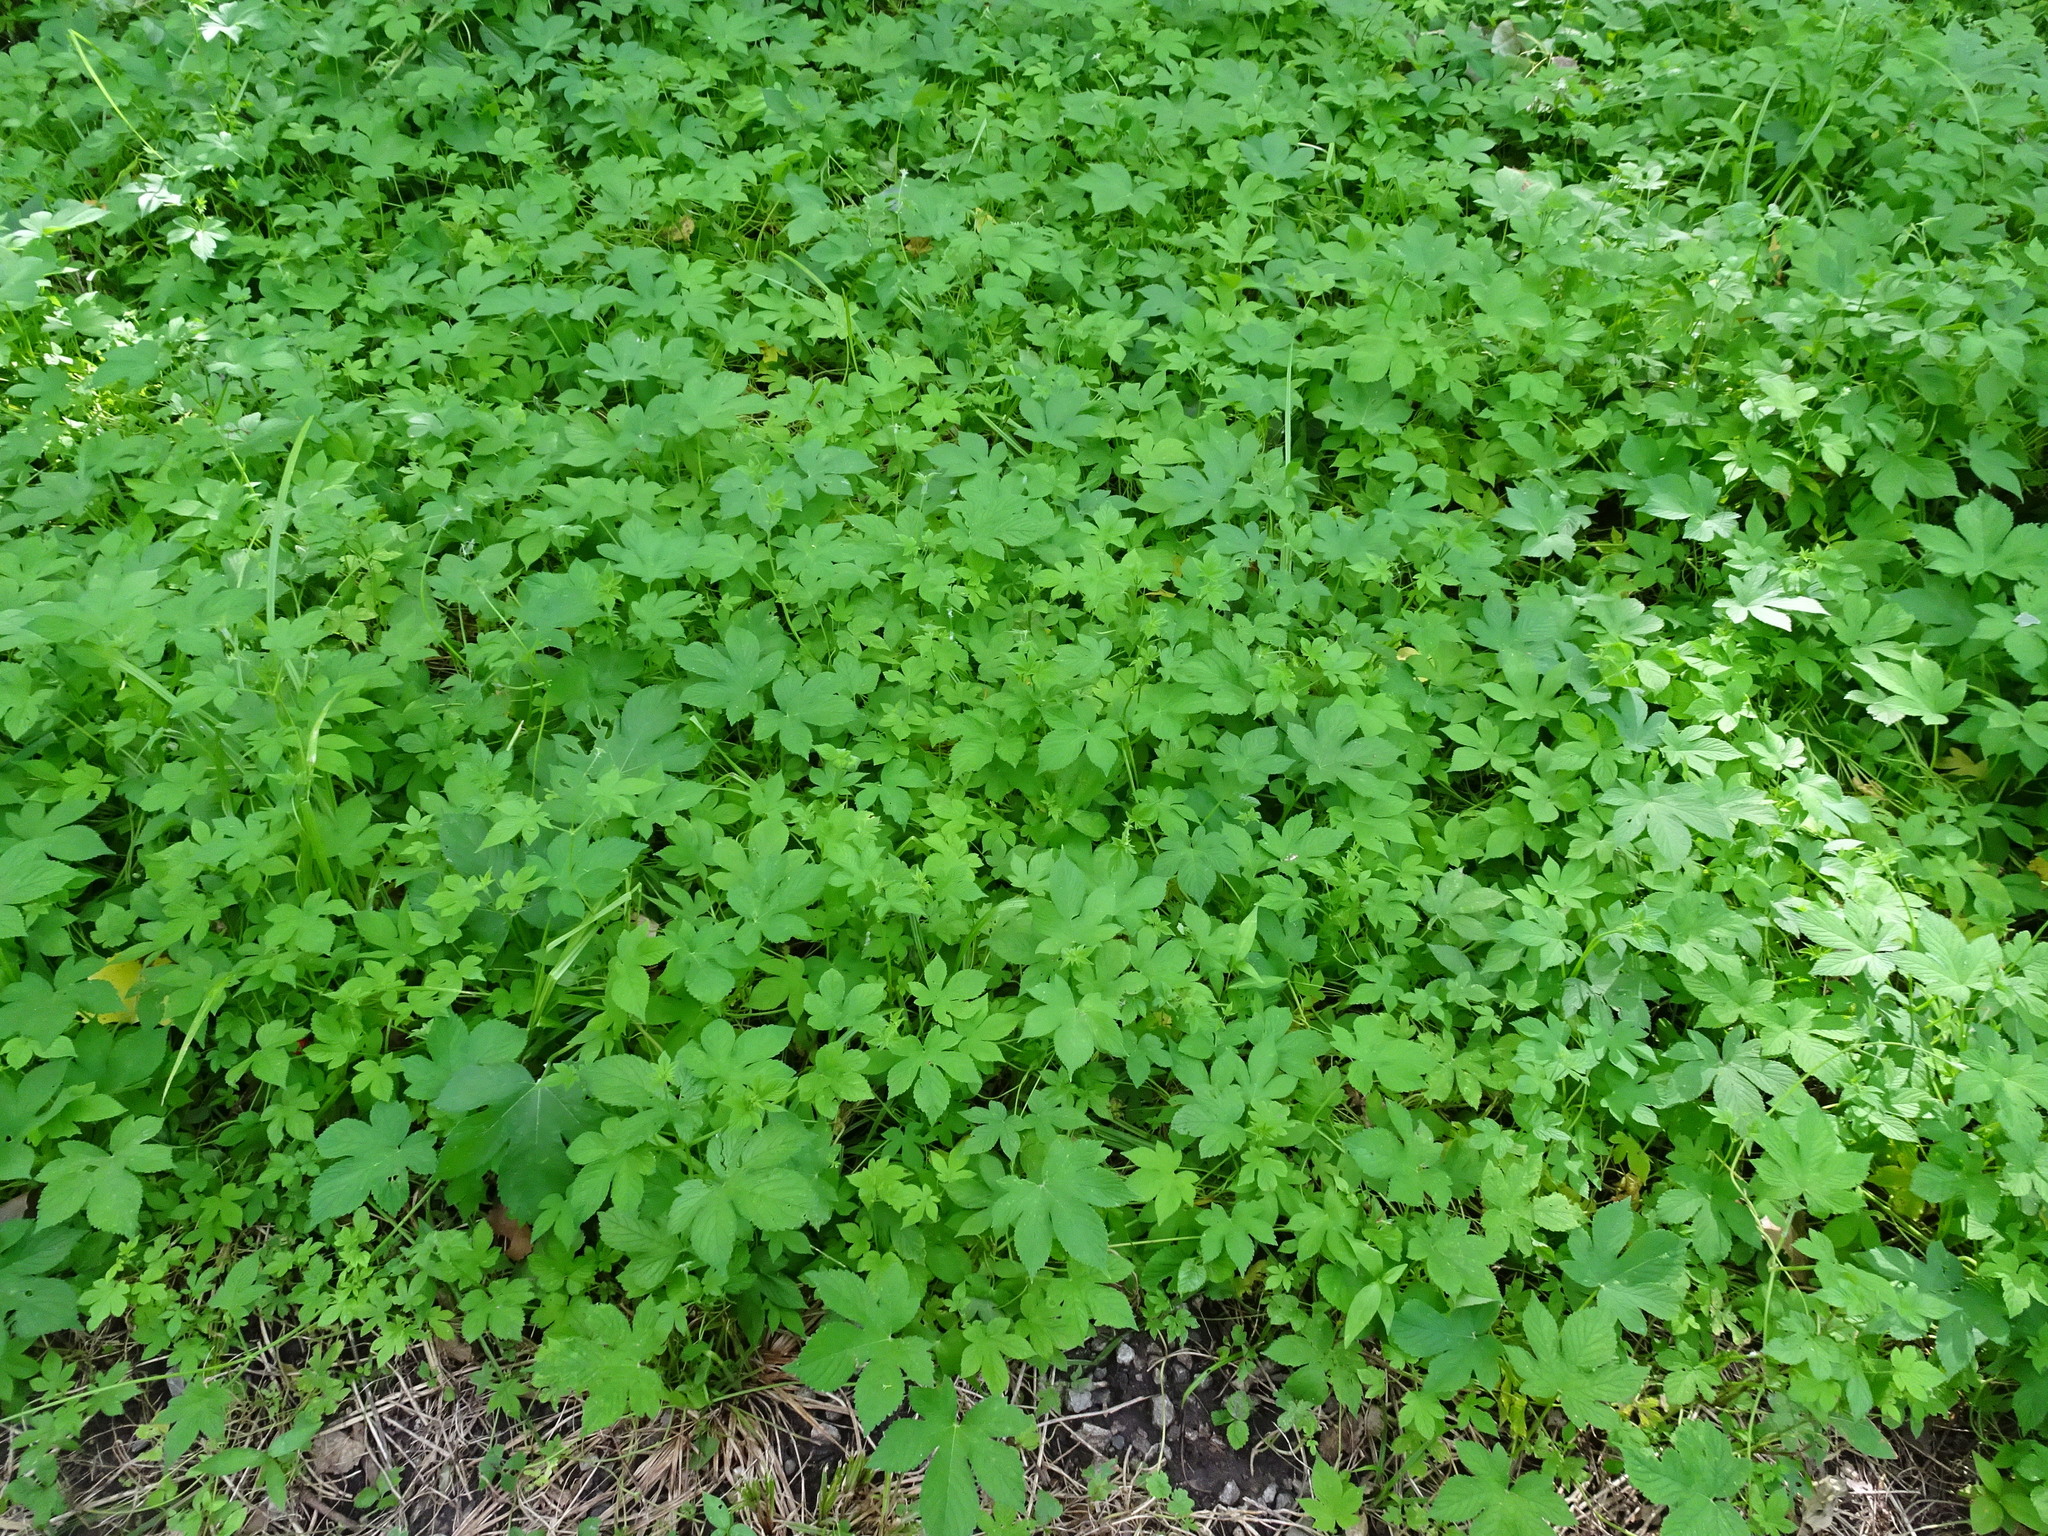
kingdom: Plantae
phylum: Tracheophyta
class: Magnoliopsida
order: Rosales
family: Cannabaceae
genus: Humulus
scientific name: Humulus scandens
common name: Japanese hop
